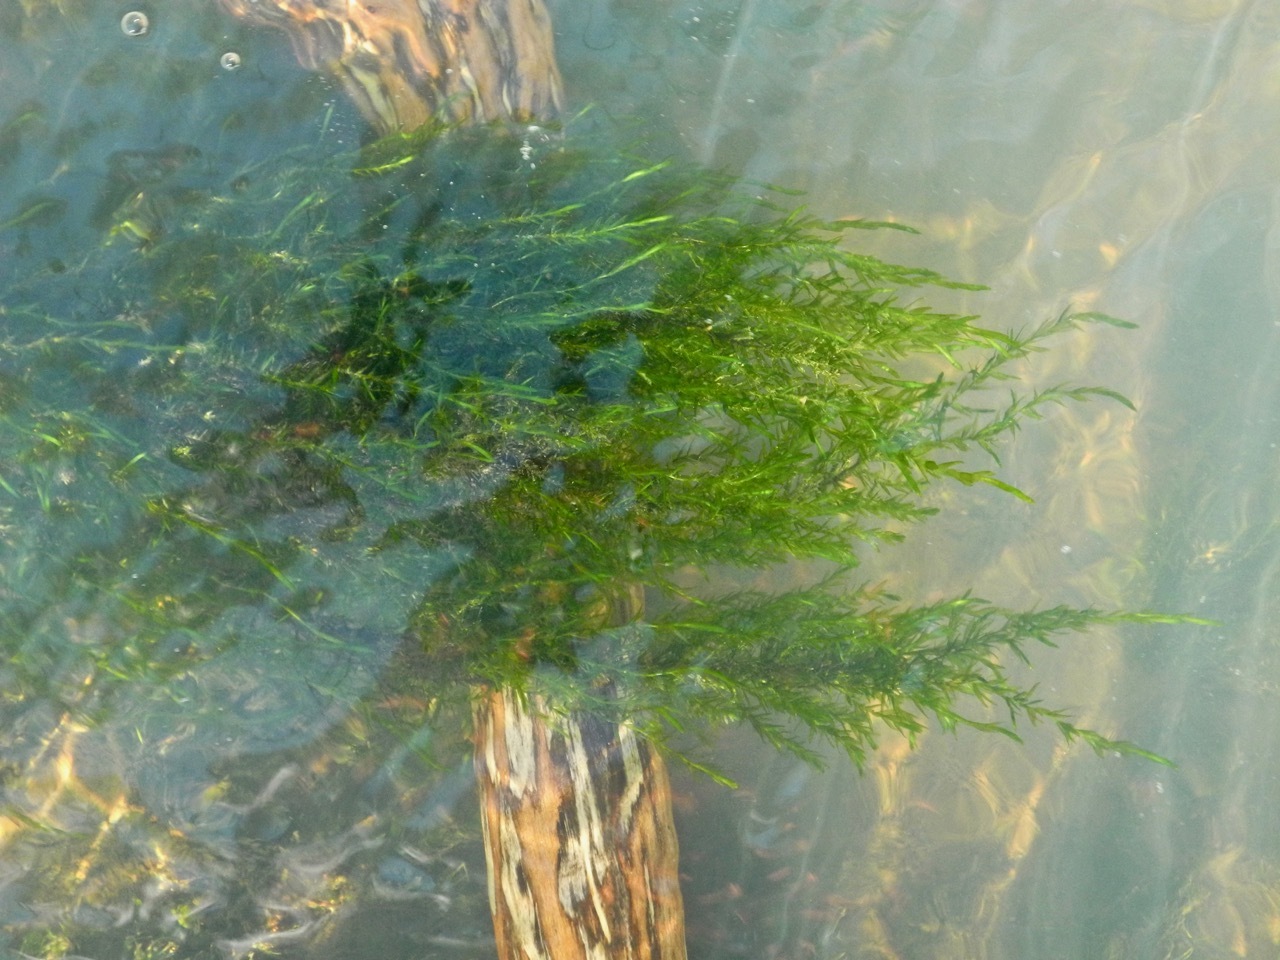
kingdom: Plantae
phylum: Bryophyta
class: Bryopsida
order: Hypnales
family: Fontinalaceae
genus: Fontinalis
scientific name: Fontinalis dalecarlica
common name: Slender water moss
